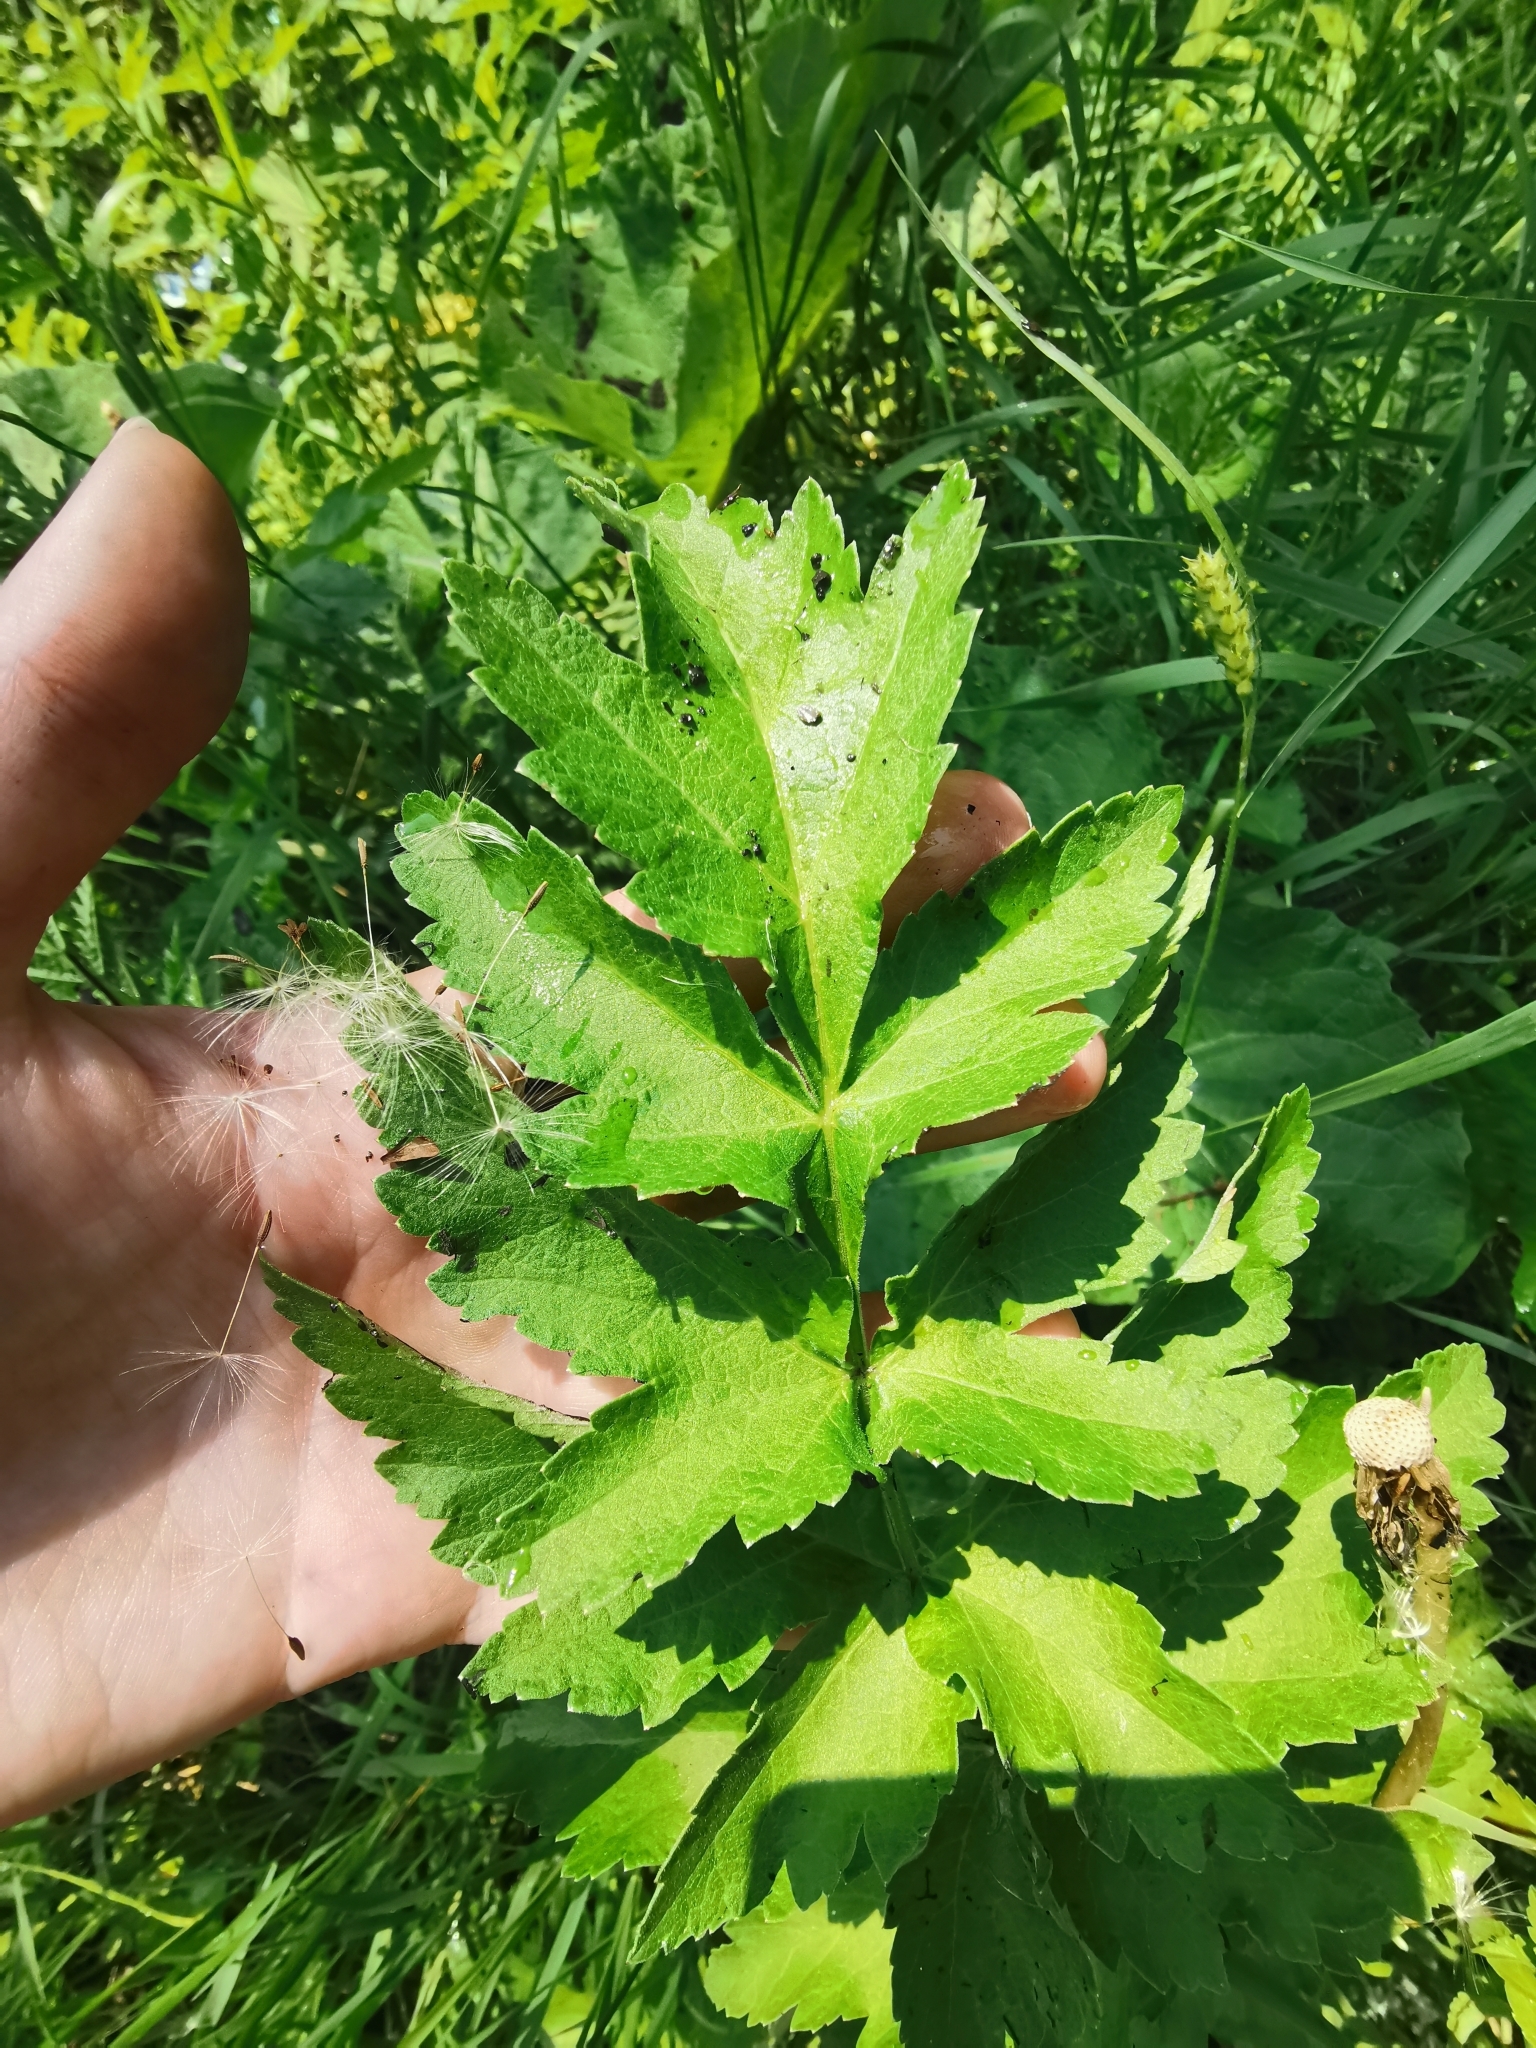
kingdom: Plantae
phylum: Tracheophyta
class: Magnoliopsida
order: Apiales
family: Apiaceae
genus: Pastinaca
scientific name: Pastinaca sativa
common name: Wild parsnip
